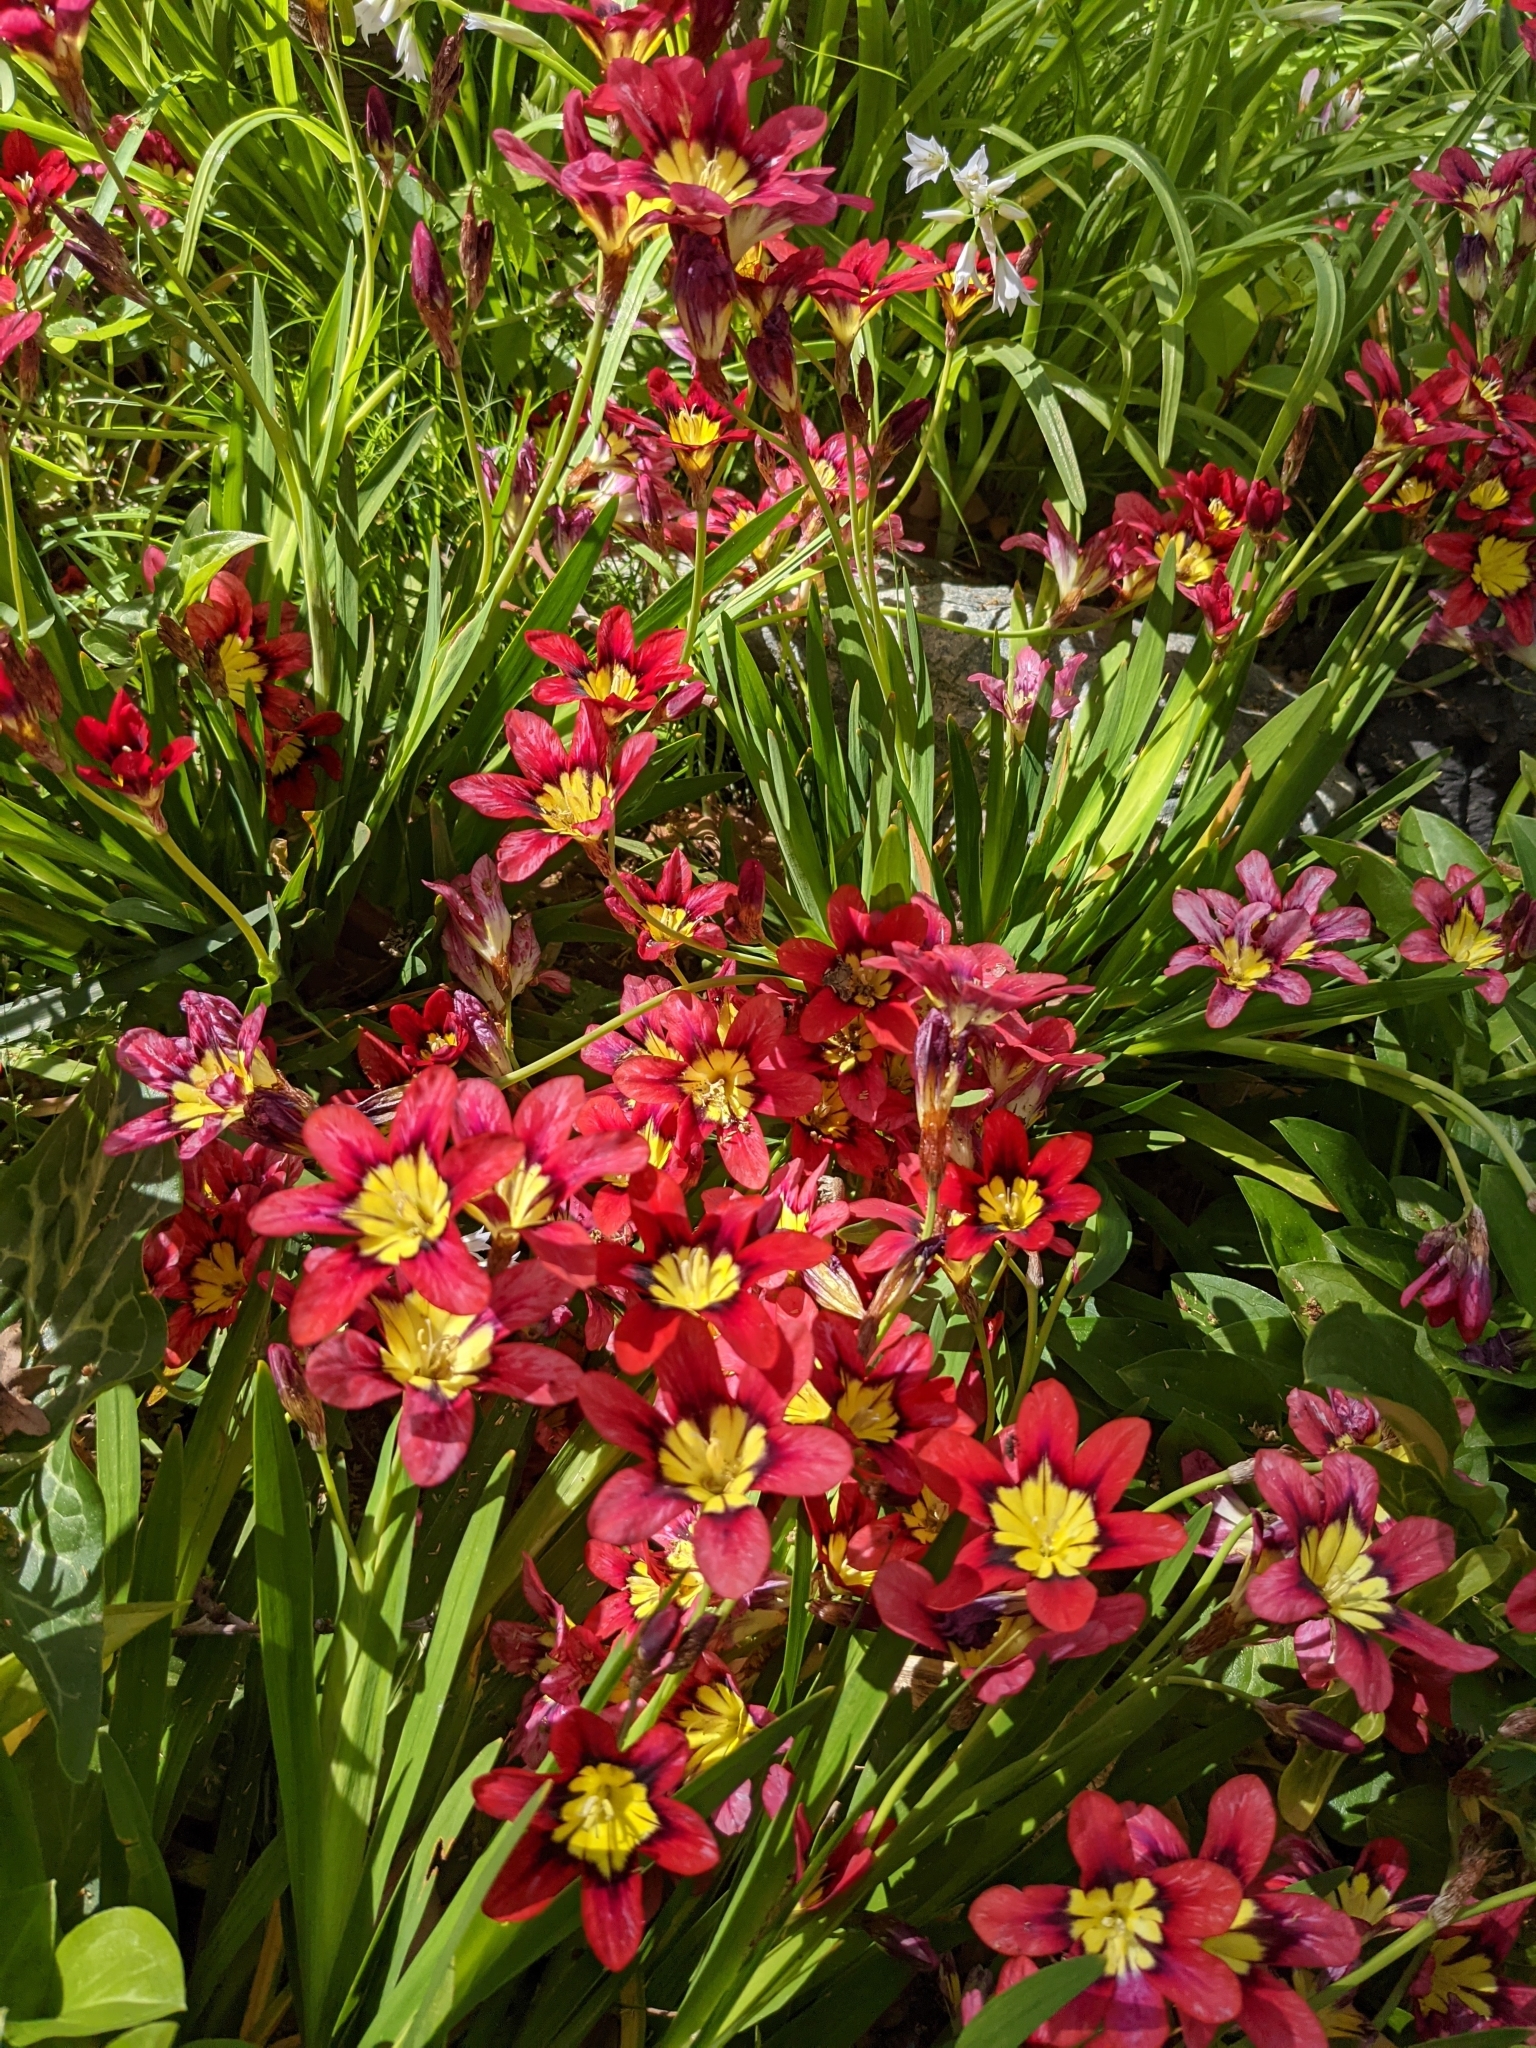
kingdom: Plantae
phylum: Tracheophyta
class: Liliopsida
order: Asparagales
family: Iridaceae
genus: Sparaxis
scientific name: Sparaxis tricolor
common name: Wandflower
